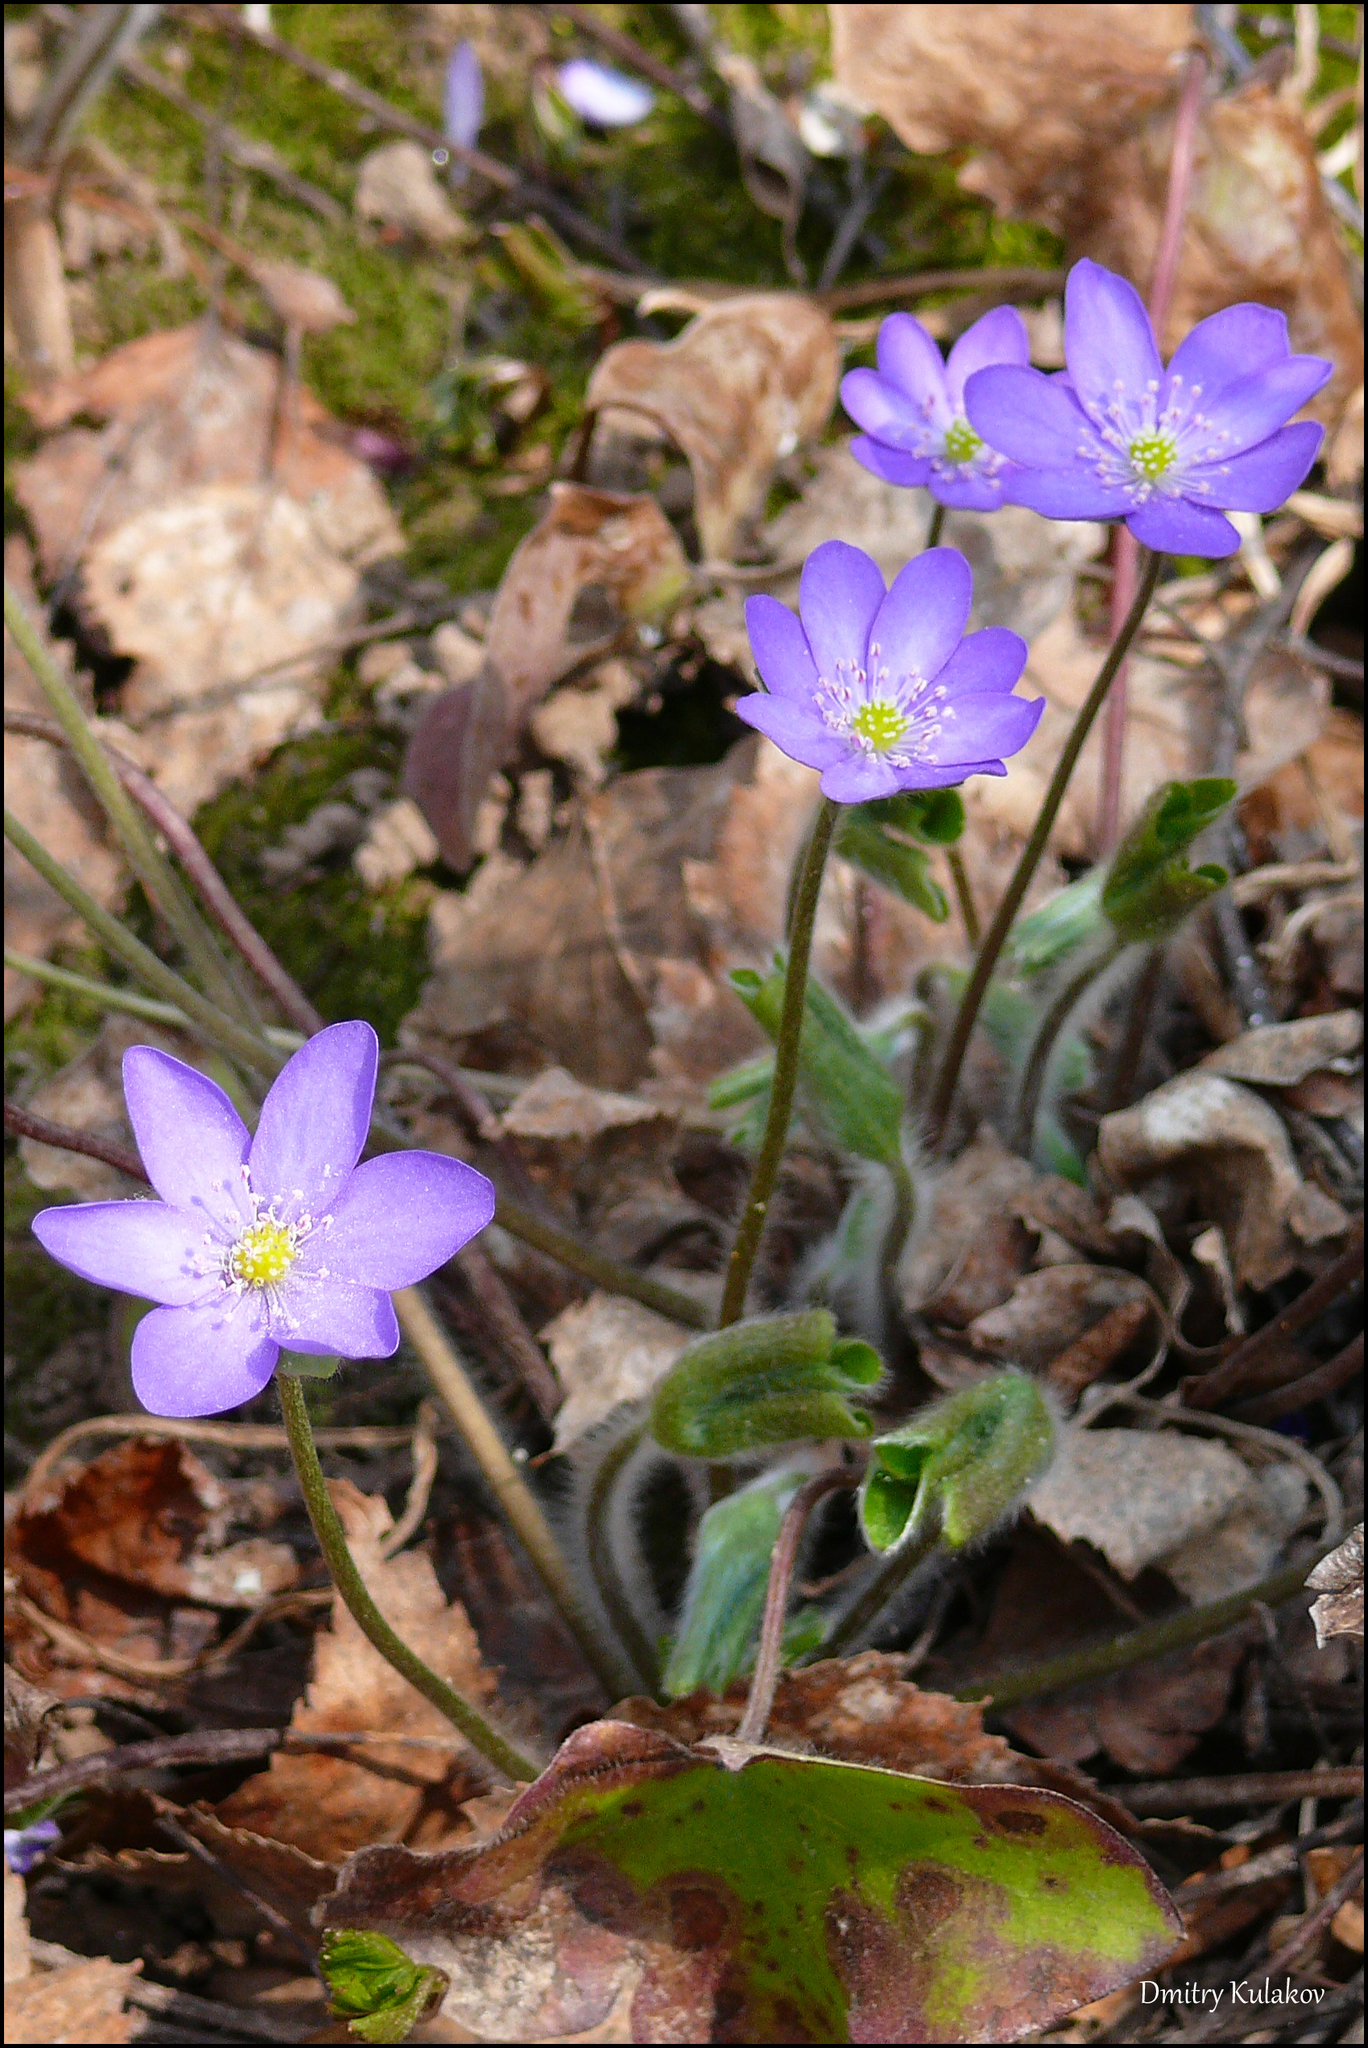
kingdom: Plantae
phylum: Tracheophyta
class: Magnoliopsida
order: Ranunculales
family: Ranunculaceae
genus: Hepatica
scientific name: Hepatica nobilis
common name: Liverleaf
